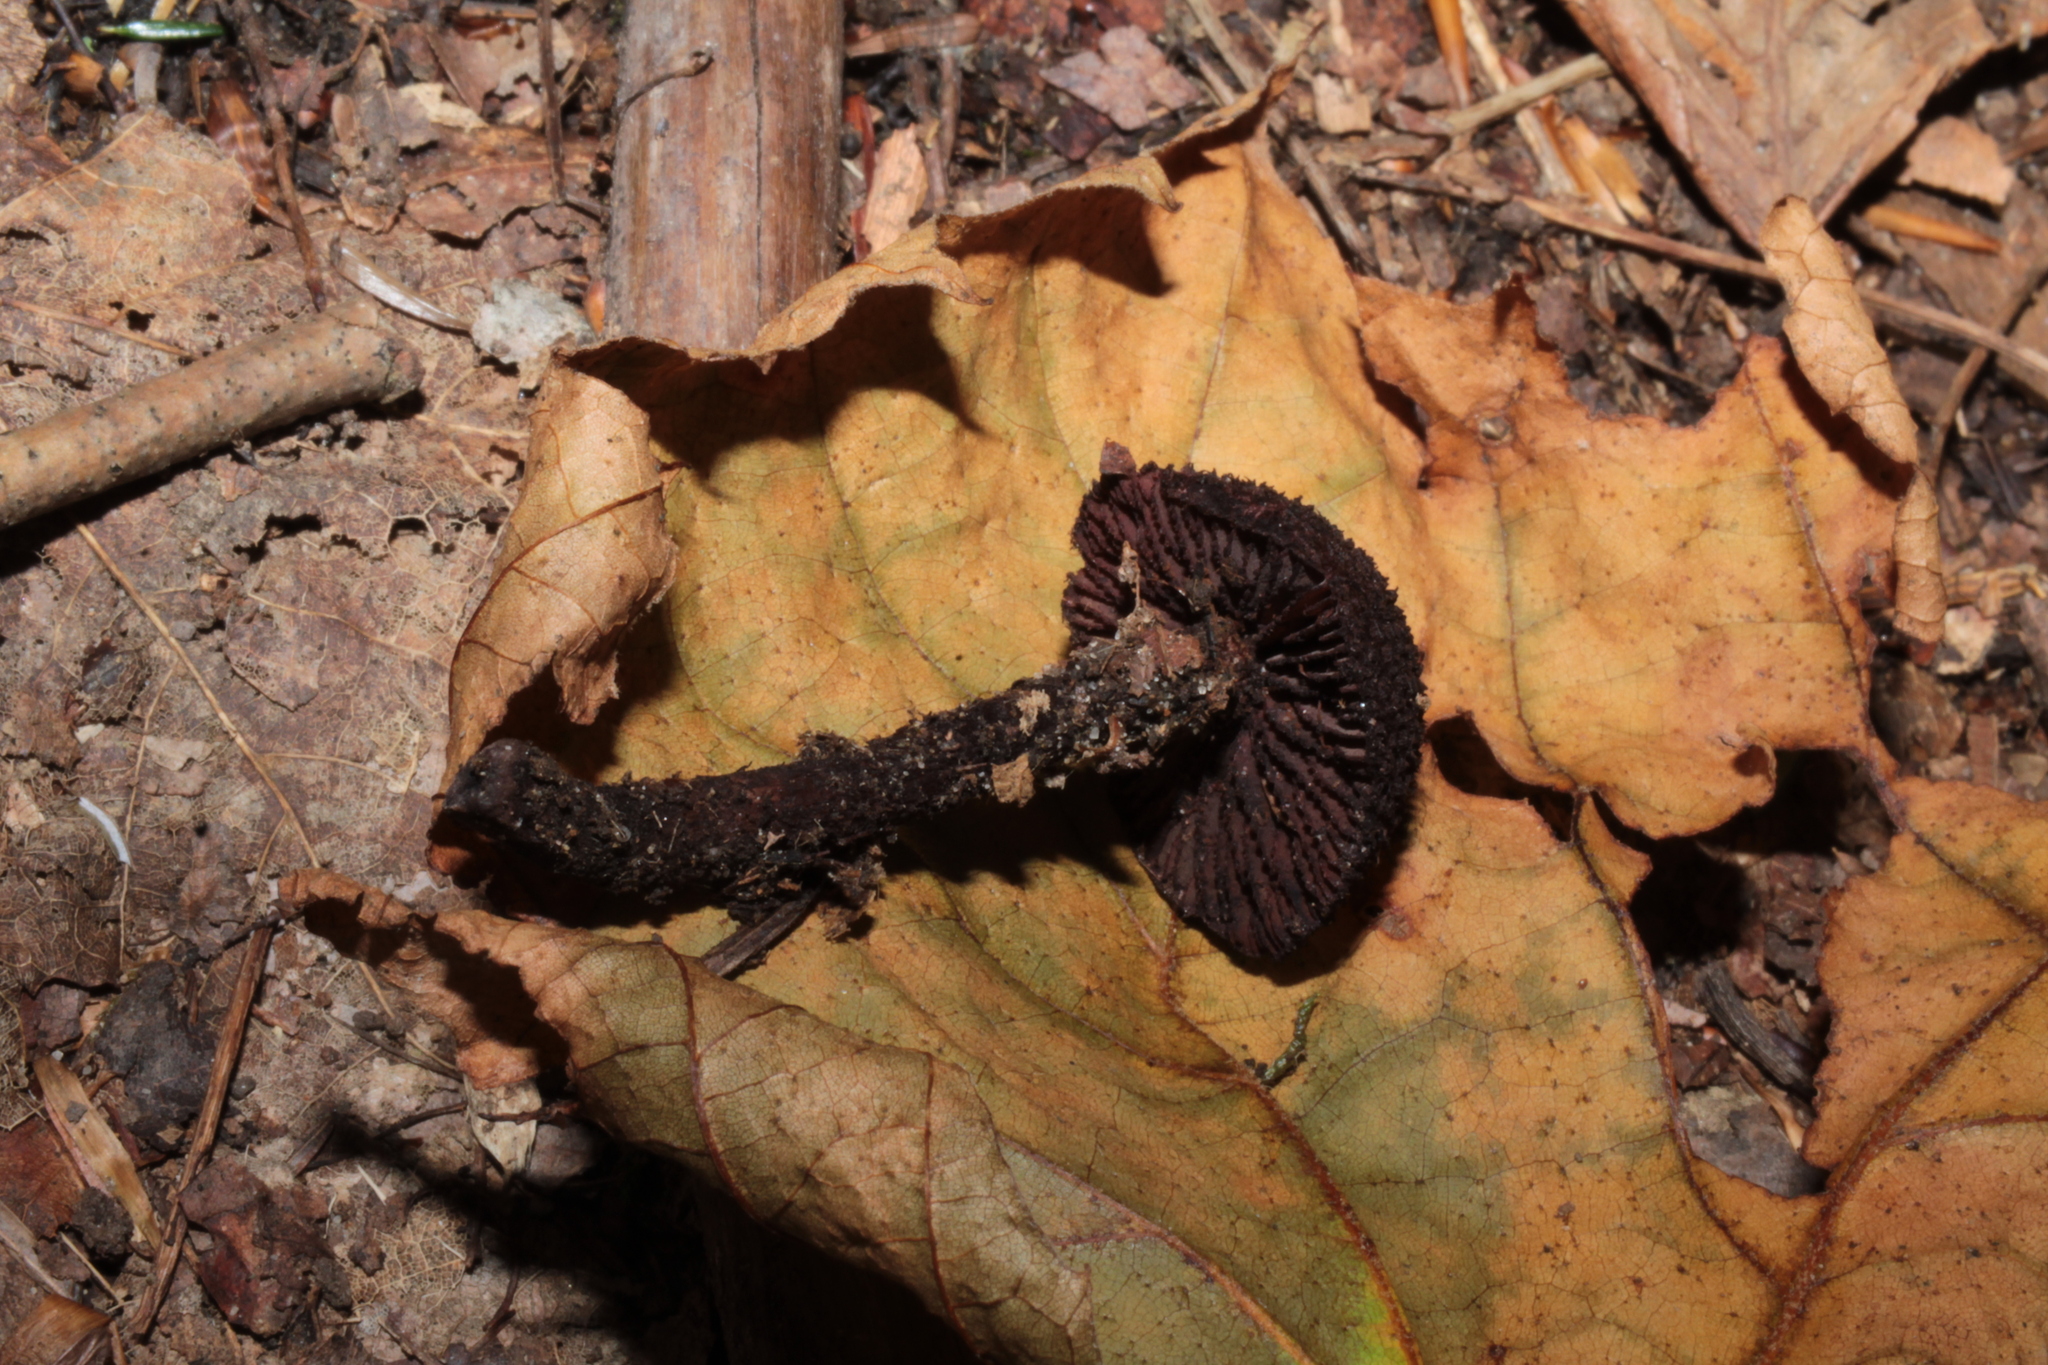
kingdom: Fungi
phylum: Basidiomycota
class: Agaricomycetes
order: Agaricales
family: Inocybaceae
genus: Inocybe
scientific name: Inocybe tahquamenonensis
